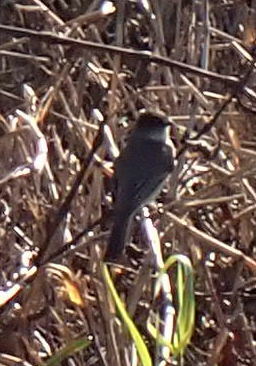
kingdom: Animalia
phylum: Chordata
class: Aves
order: Passeriformes
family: Tyrannidae
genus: Sayornis
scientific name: Sayornis phoebe
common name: Eastern phoebe
